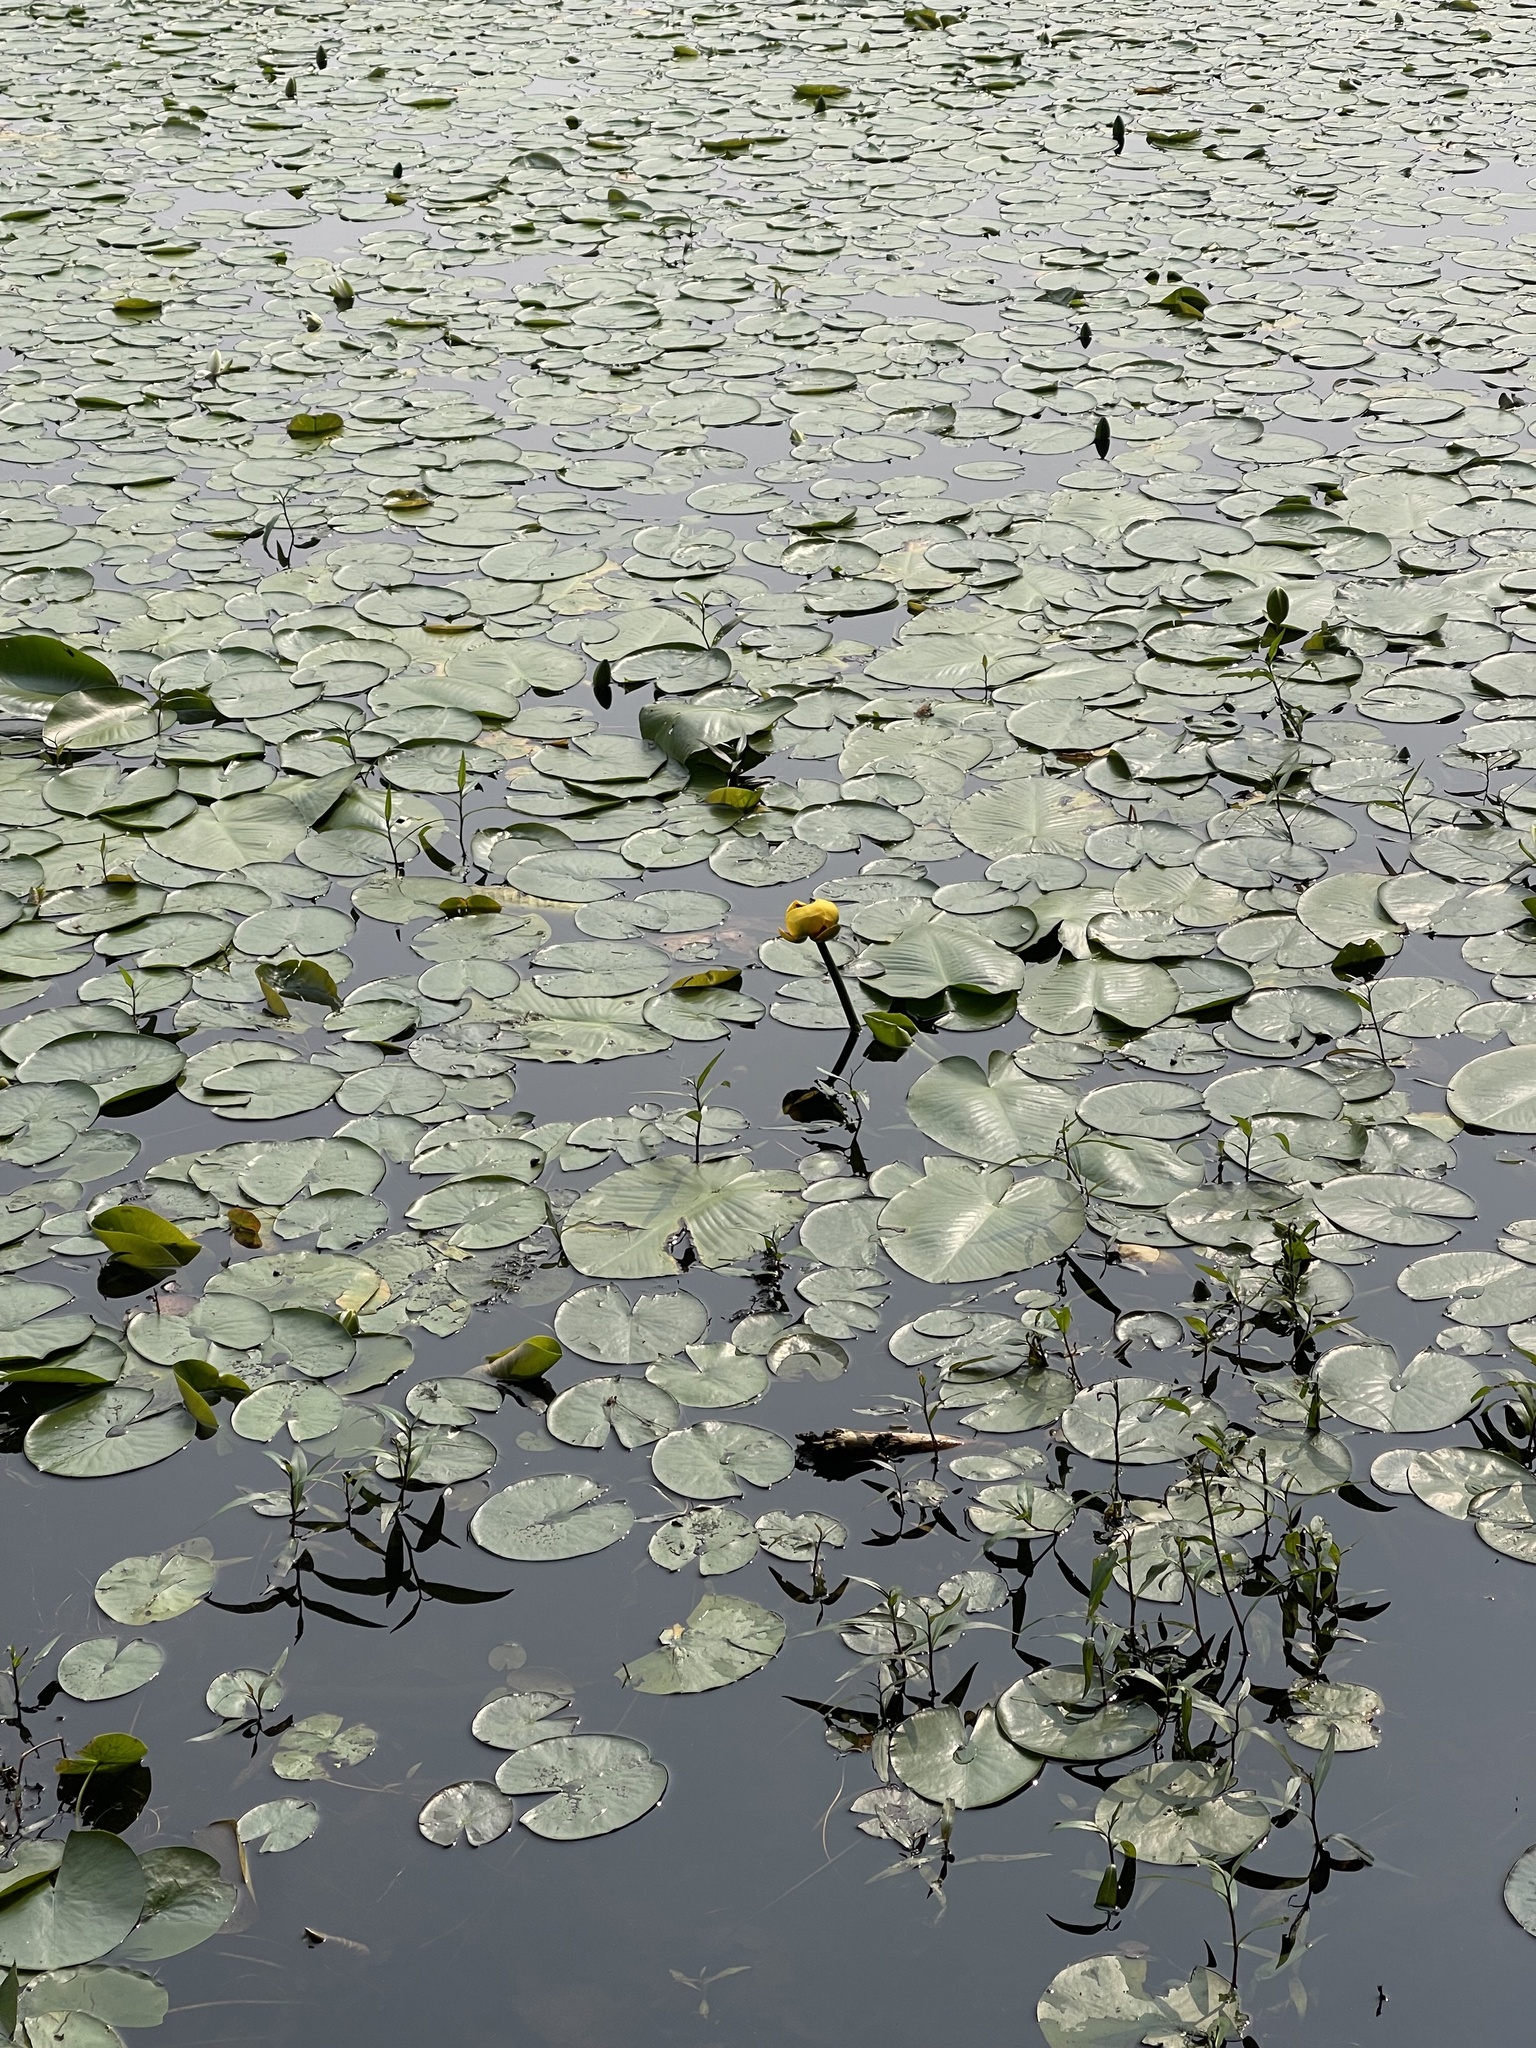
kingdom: Plantae
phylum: Tracheophyta
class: Magnoliopsida
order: Nymphaeales
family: Nymphaeaceae
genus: Nuphar
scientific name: Nuphar lutea
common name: Yellow water-lily
